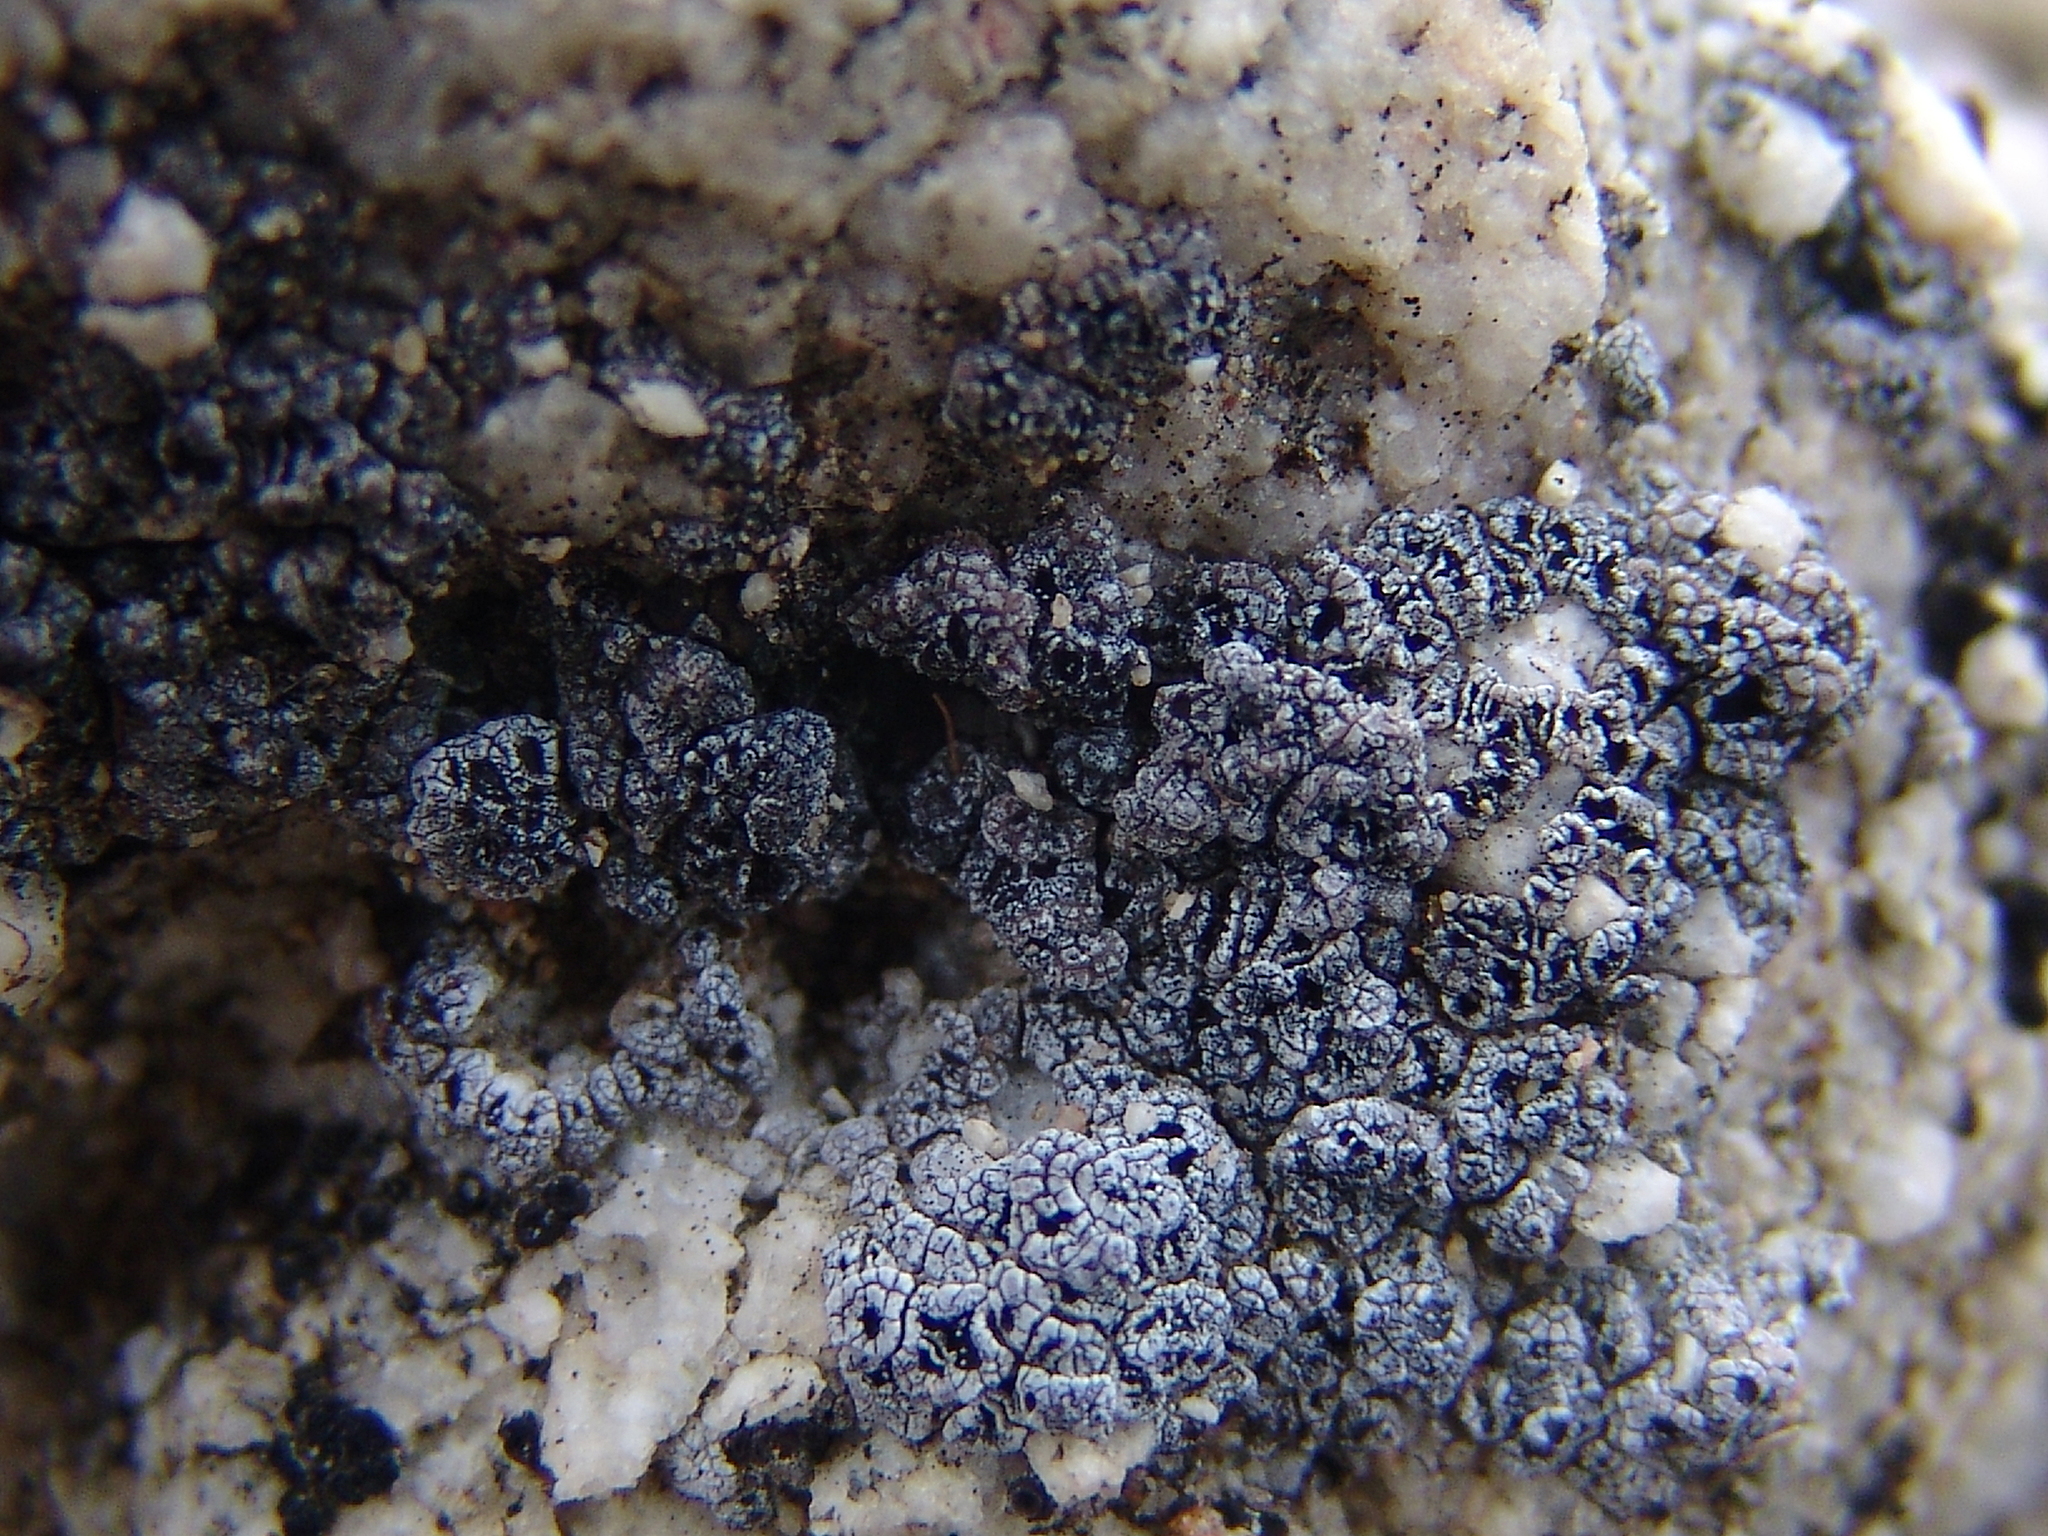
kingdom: Fungi
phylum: Ascomycota
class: Lecanoromycetes
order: Acarosporales
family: Acarosporaceae
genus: Acarospora
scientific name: Acarospora strigata
